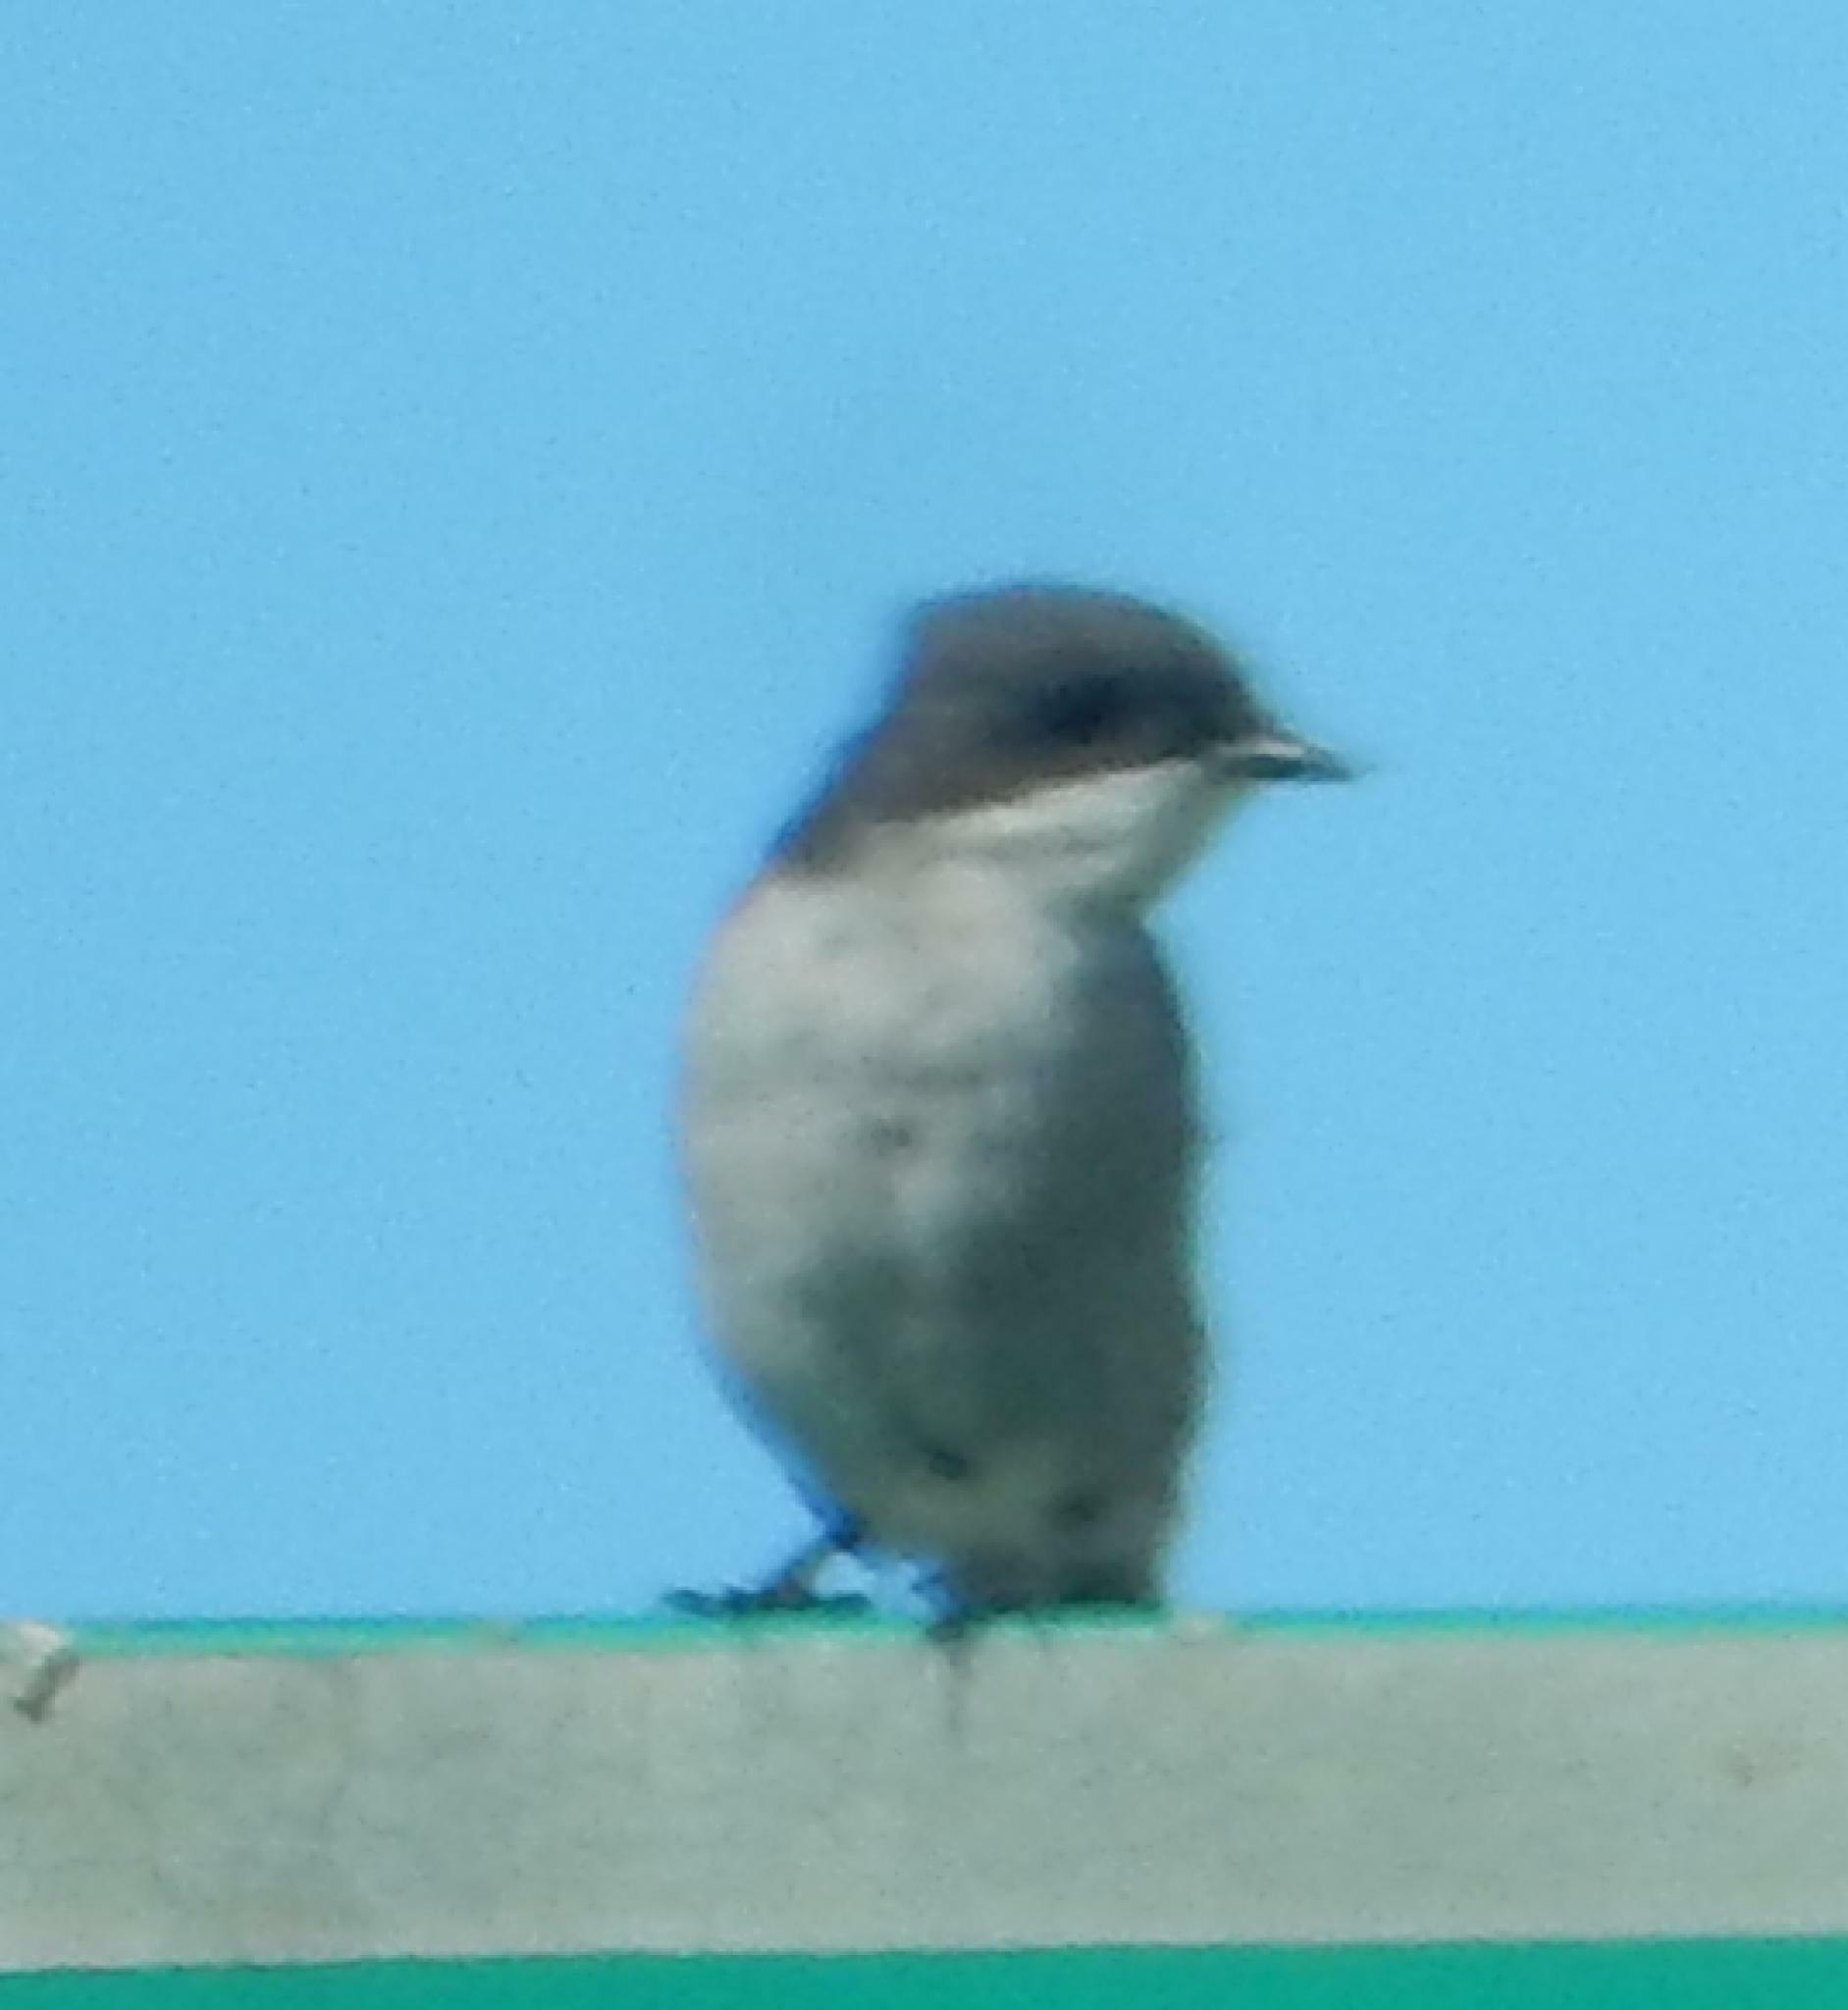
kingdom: Animalia
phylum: Chordata
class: Aves
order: Passeriformes
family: Muscicapidae
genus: Sigelus
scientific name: Sigelus silens
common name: Fiscal flycatcher
